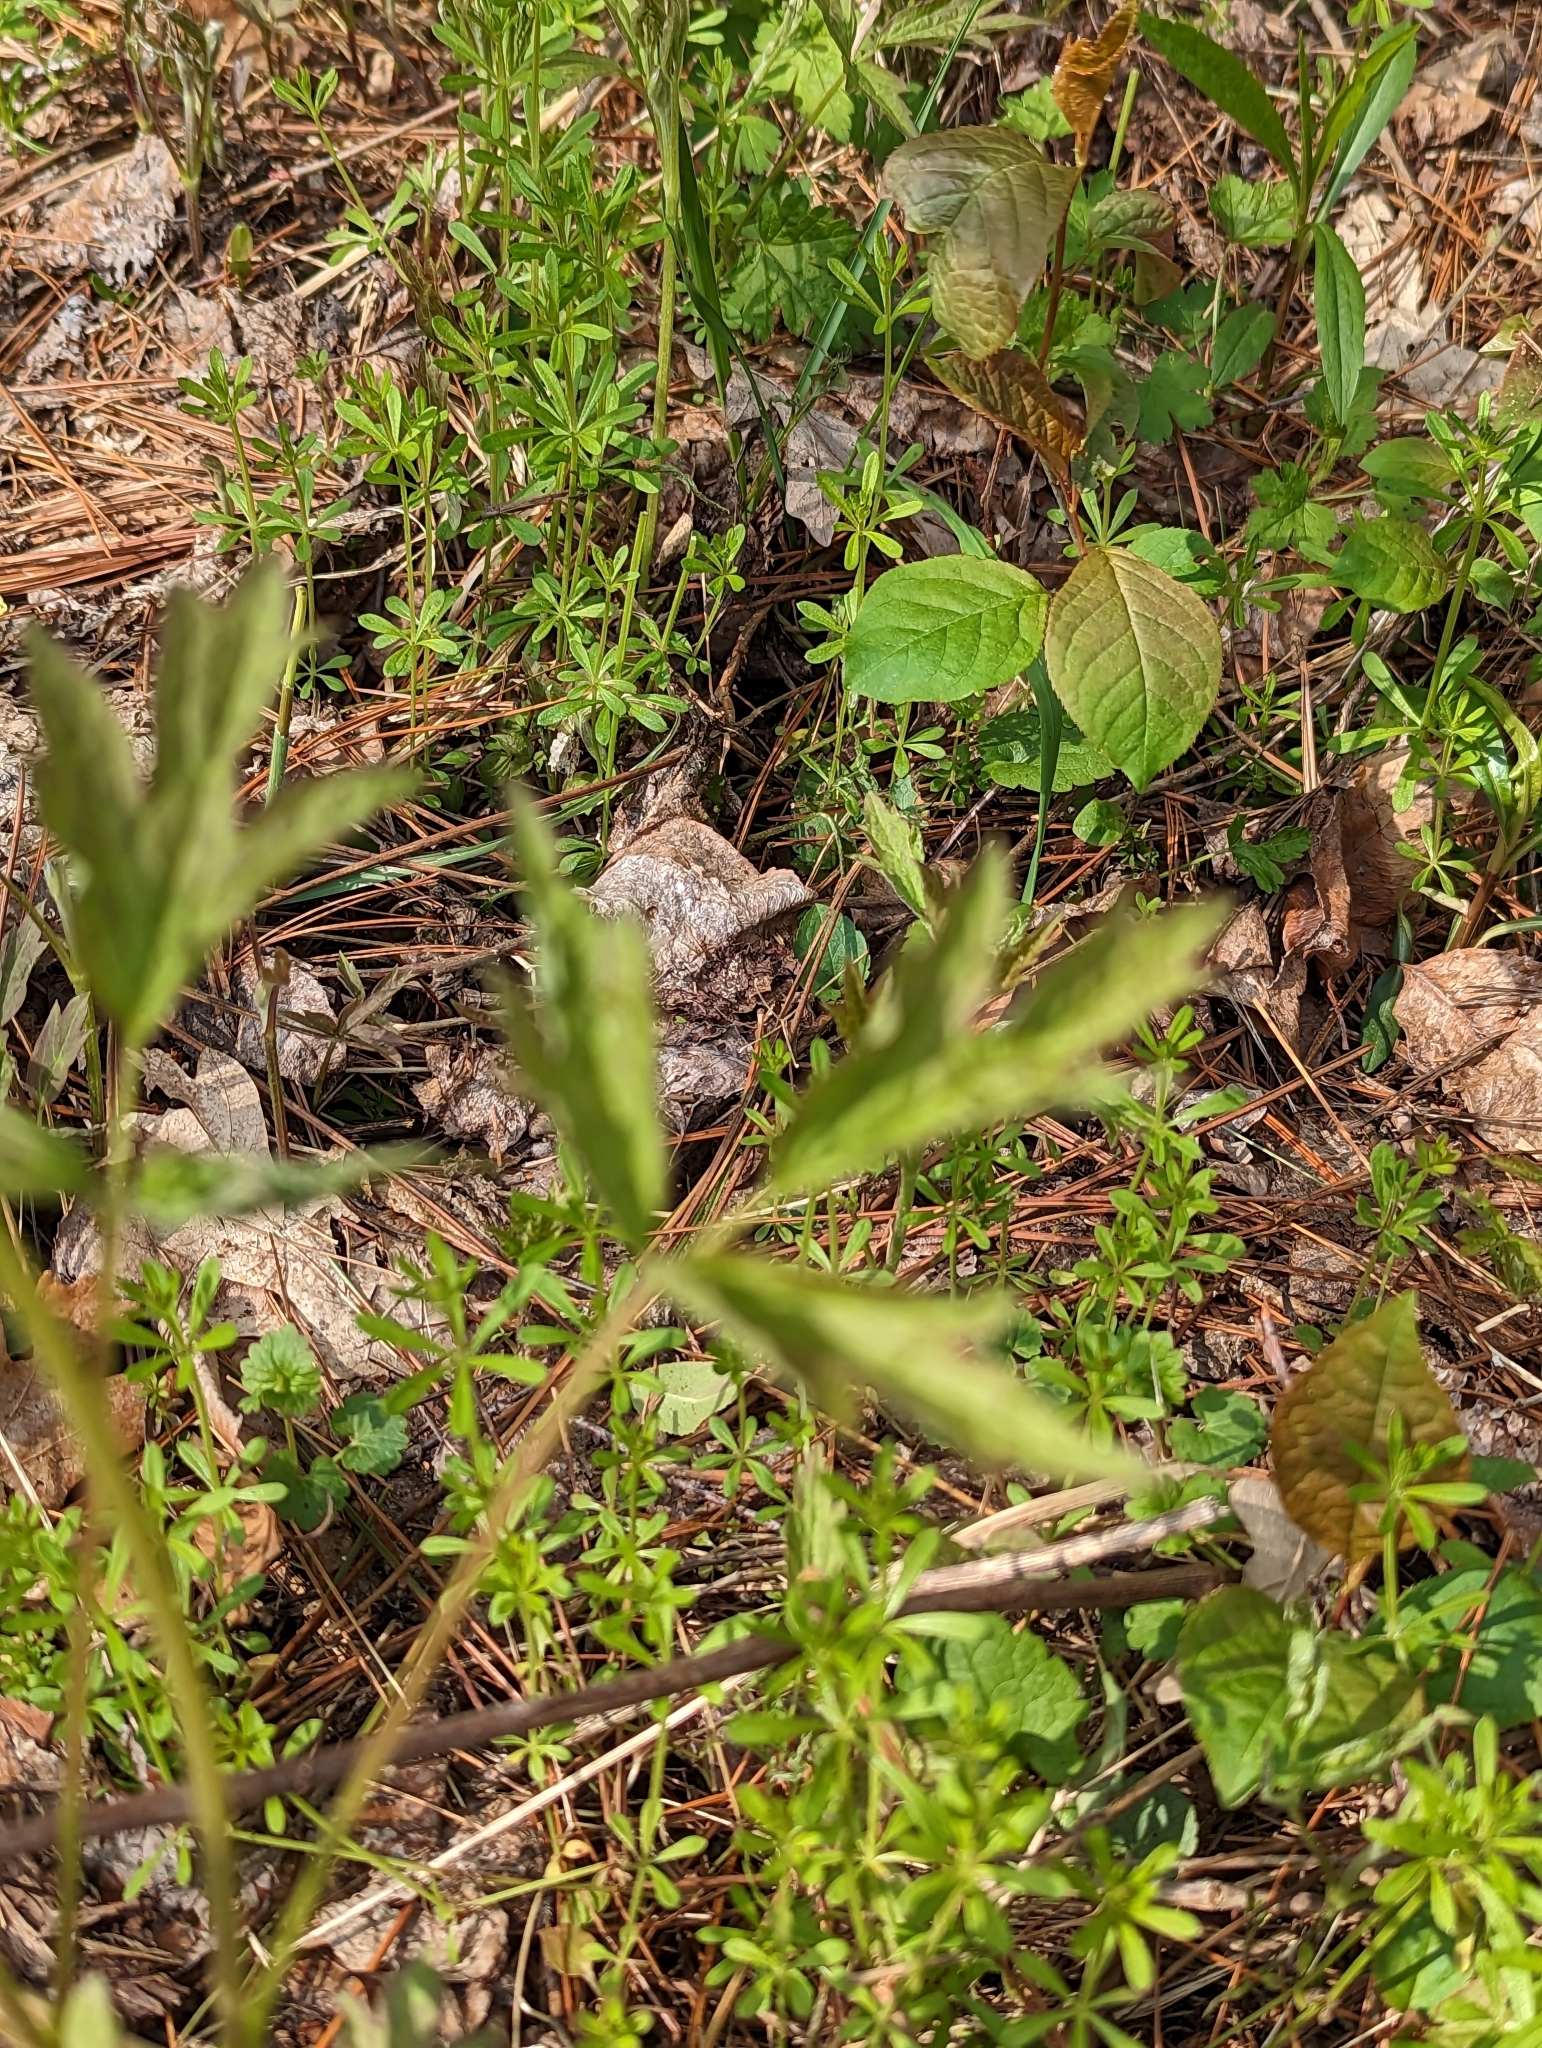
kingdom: Plantae
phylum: Tracheophyta
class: Magnoliopsida
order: Ranunculales
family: Ranunculaceae
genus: Anemone
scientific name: Anemone virginiana
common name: Tall anemone
